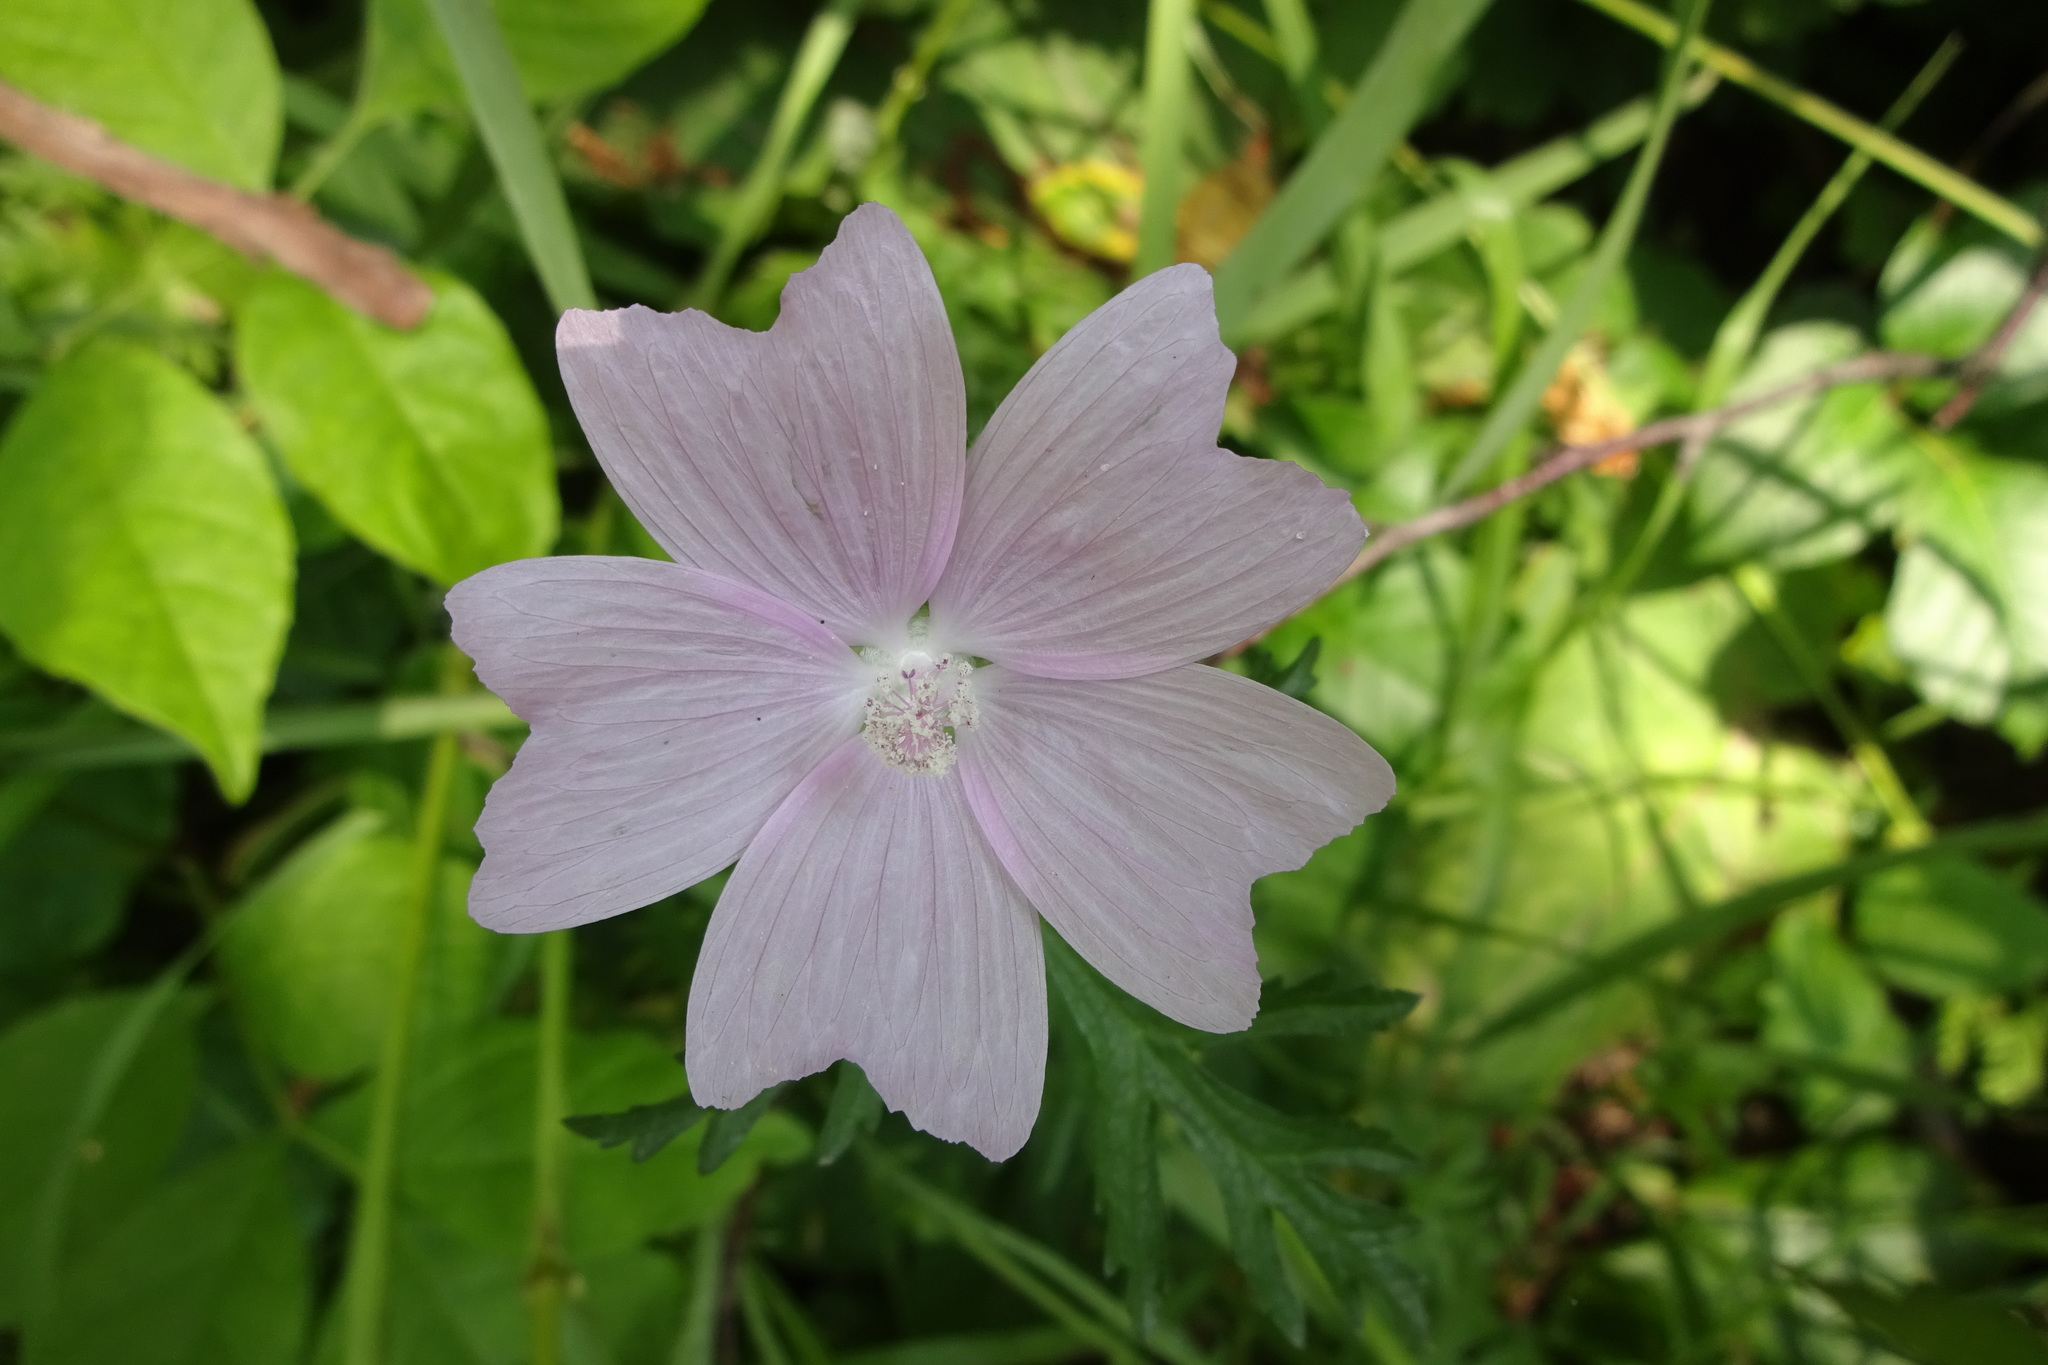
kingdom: Plantae
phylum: Tracheophyta
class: Magnoliopsida
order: Malvales
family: Malvaceae
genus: Malva
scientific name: Malva moschata
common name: Musk mallow
